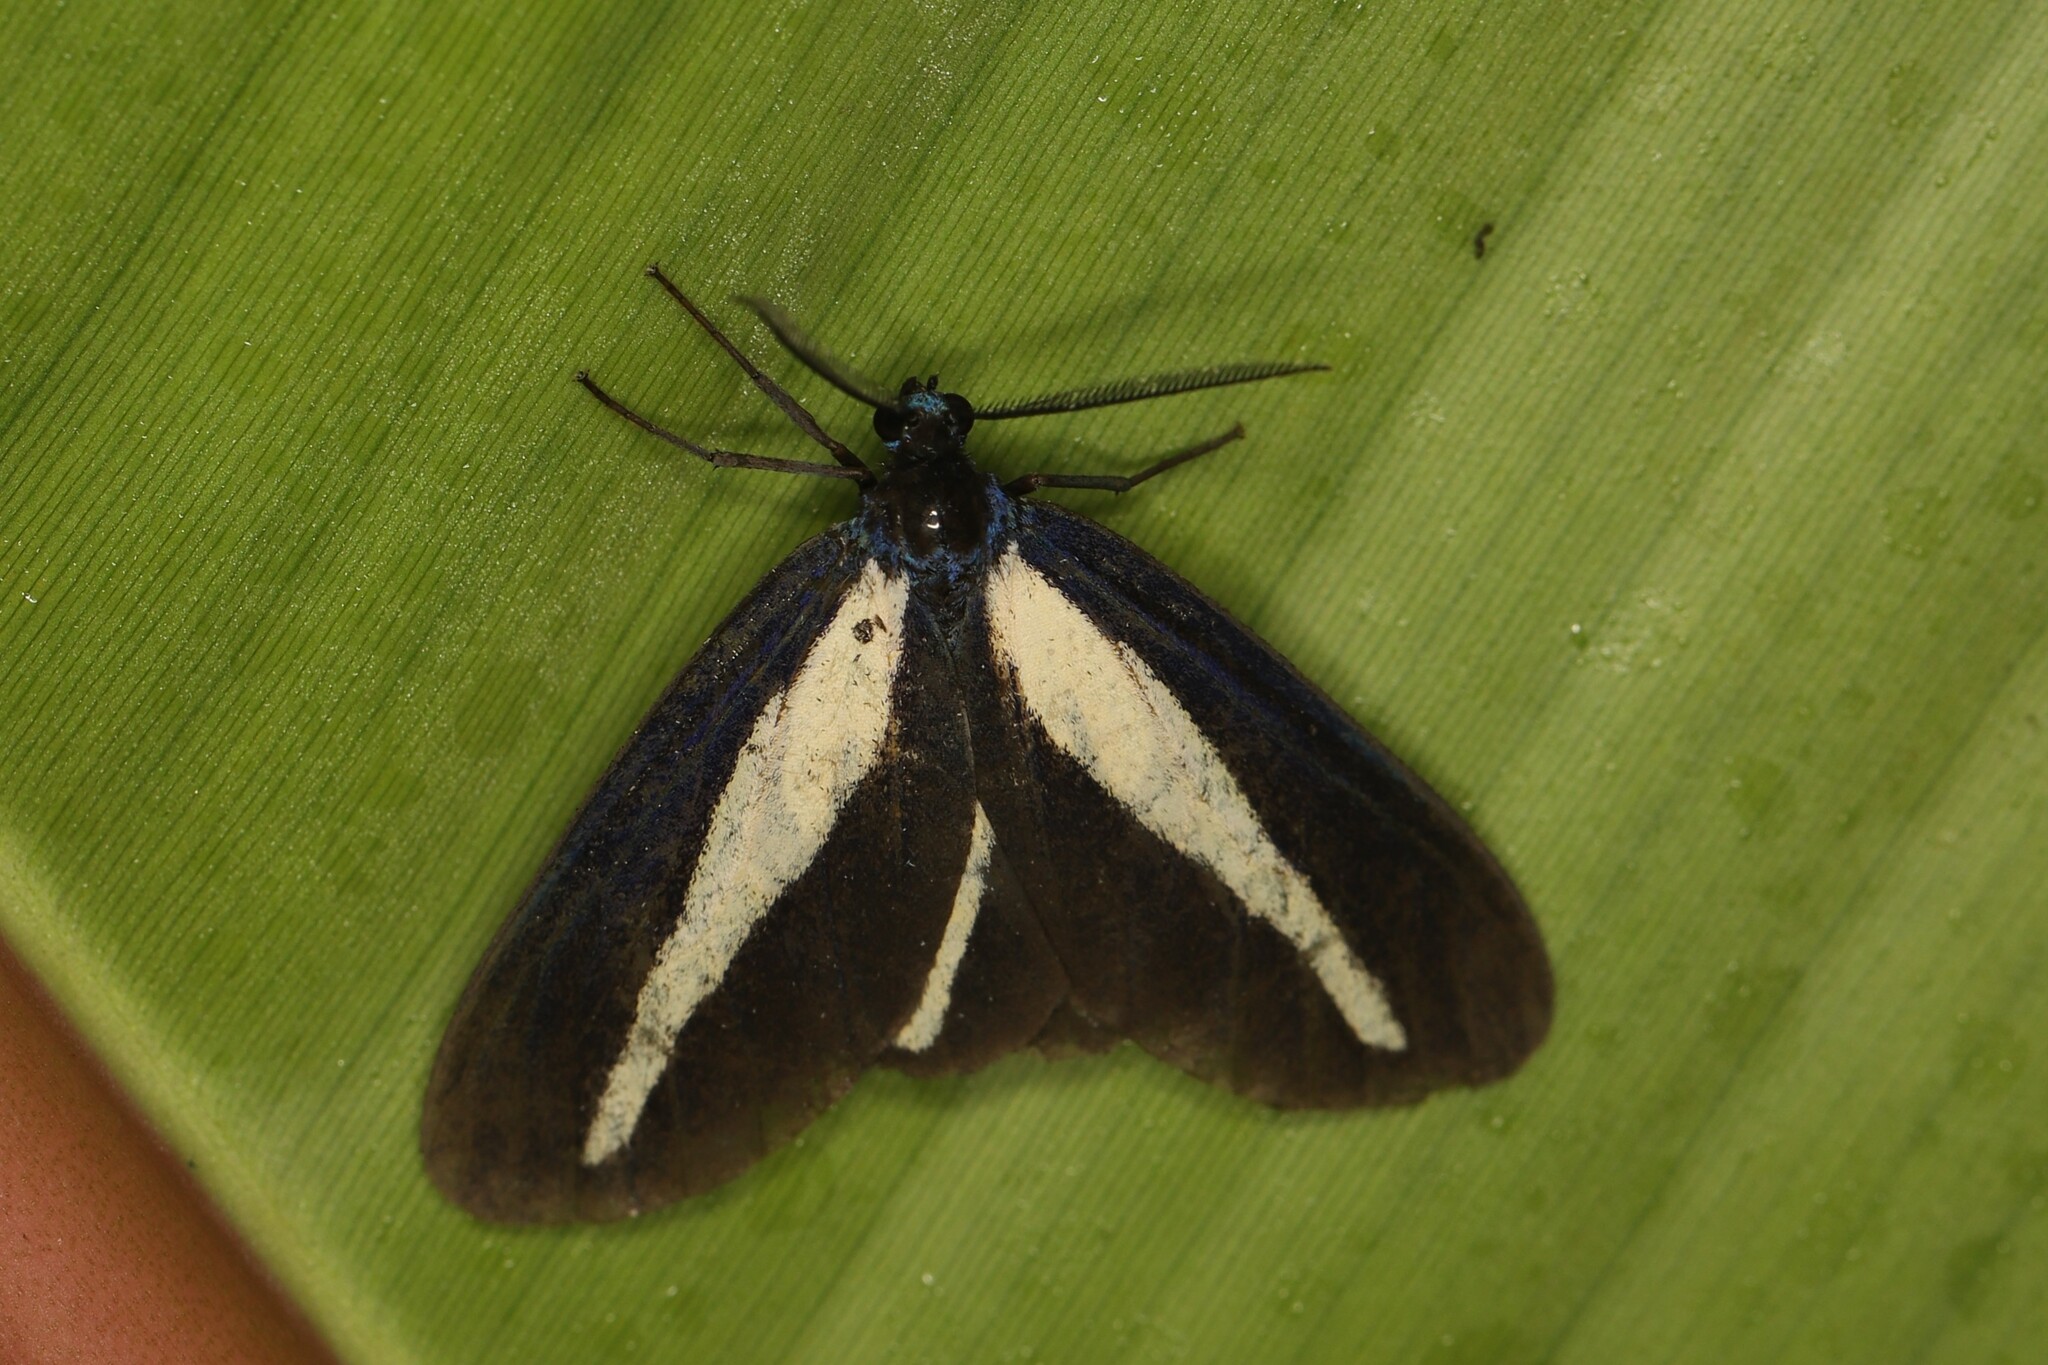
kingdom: Animalia
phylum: Arthropoda
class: Insecta
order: Lepidoptera
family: Erebidae
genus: Crocomela
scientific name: Crocomela albolineata
